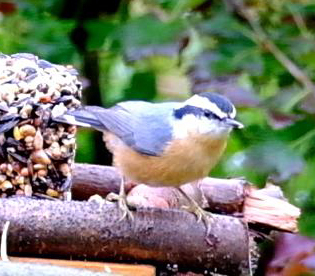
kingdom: Animalia
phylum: Chordata
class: Aves
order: Passeriformes
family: Sittidae
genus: Sitta
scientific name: Sitta canadensis
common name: Red-breasted nuthatch
